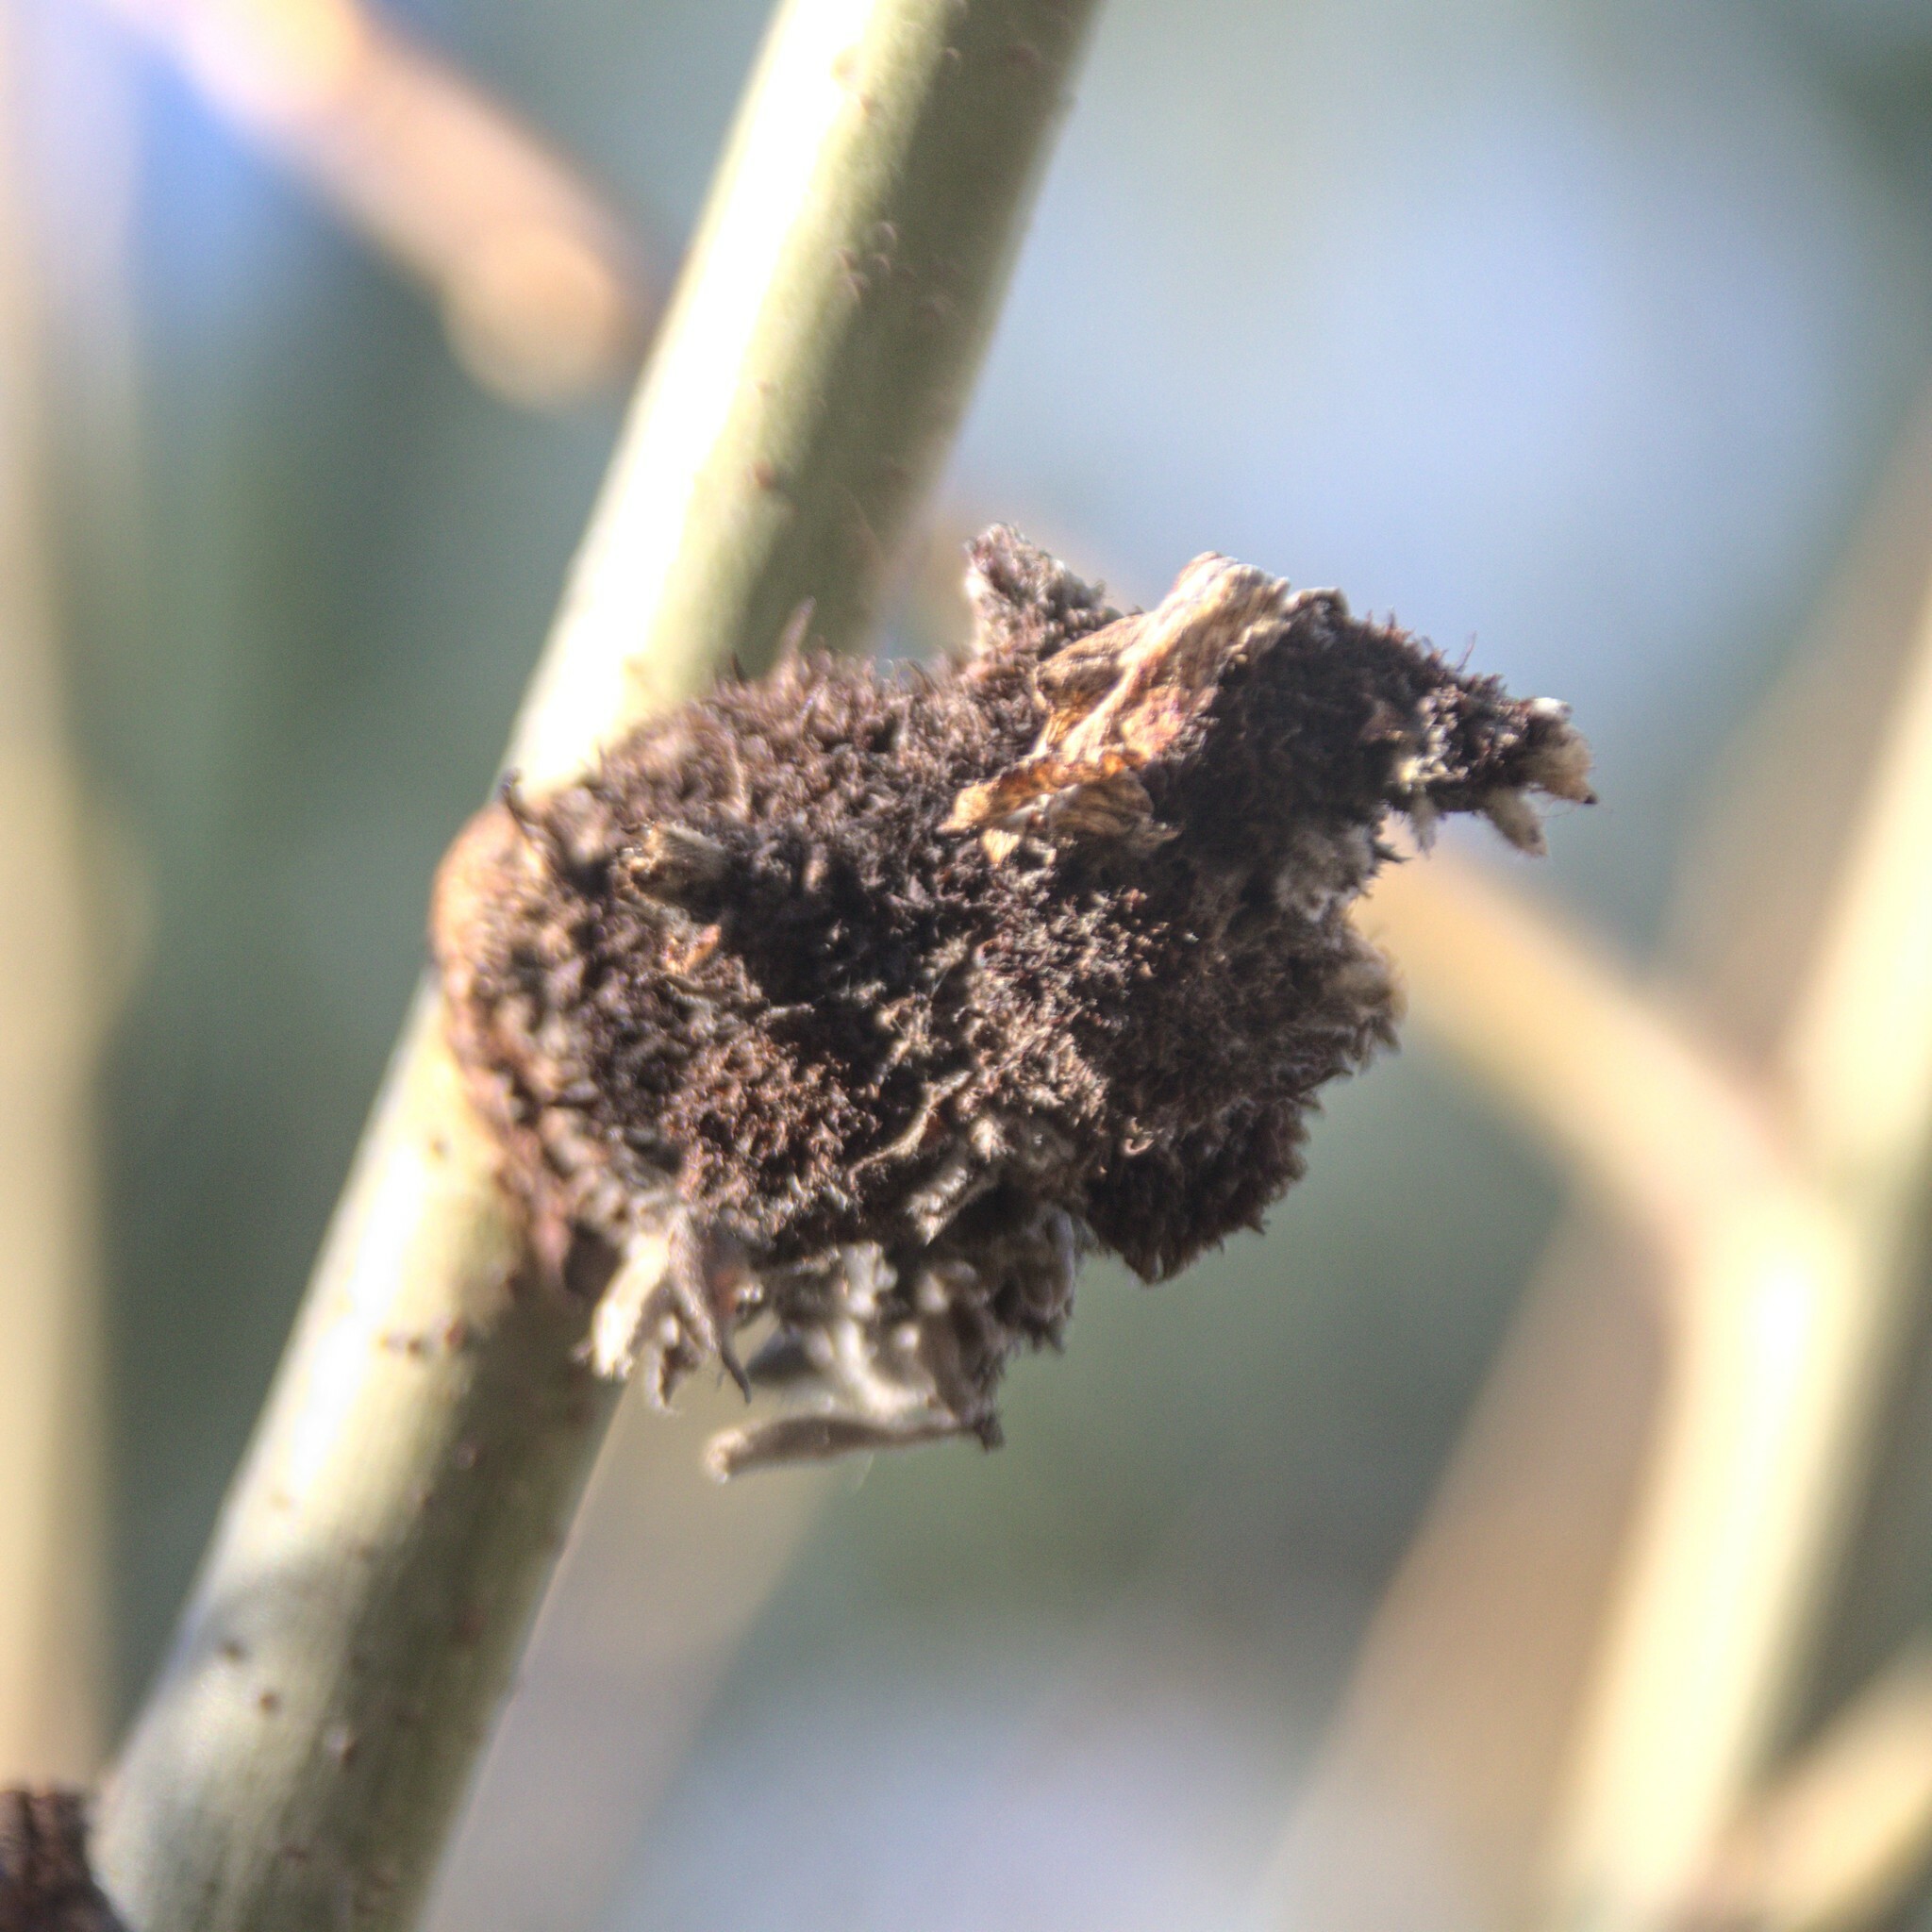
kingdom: Animalia
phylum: Arthropoda
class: Arachnida
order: Trombidiformes
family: Eriophyidae
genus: Stenacis
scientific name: Stenacis triradiatus
